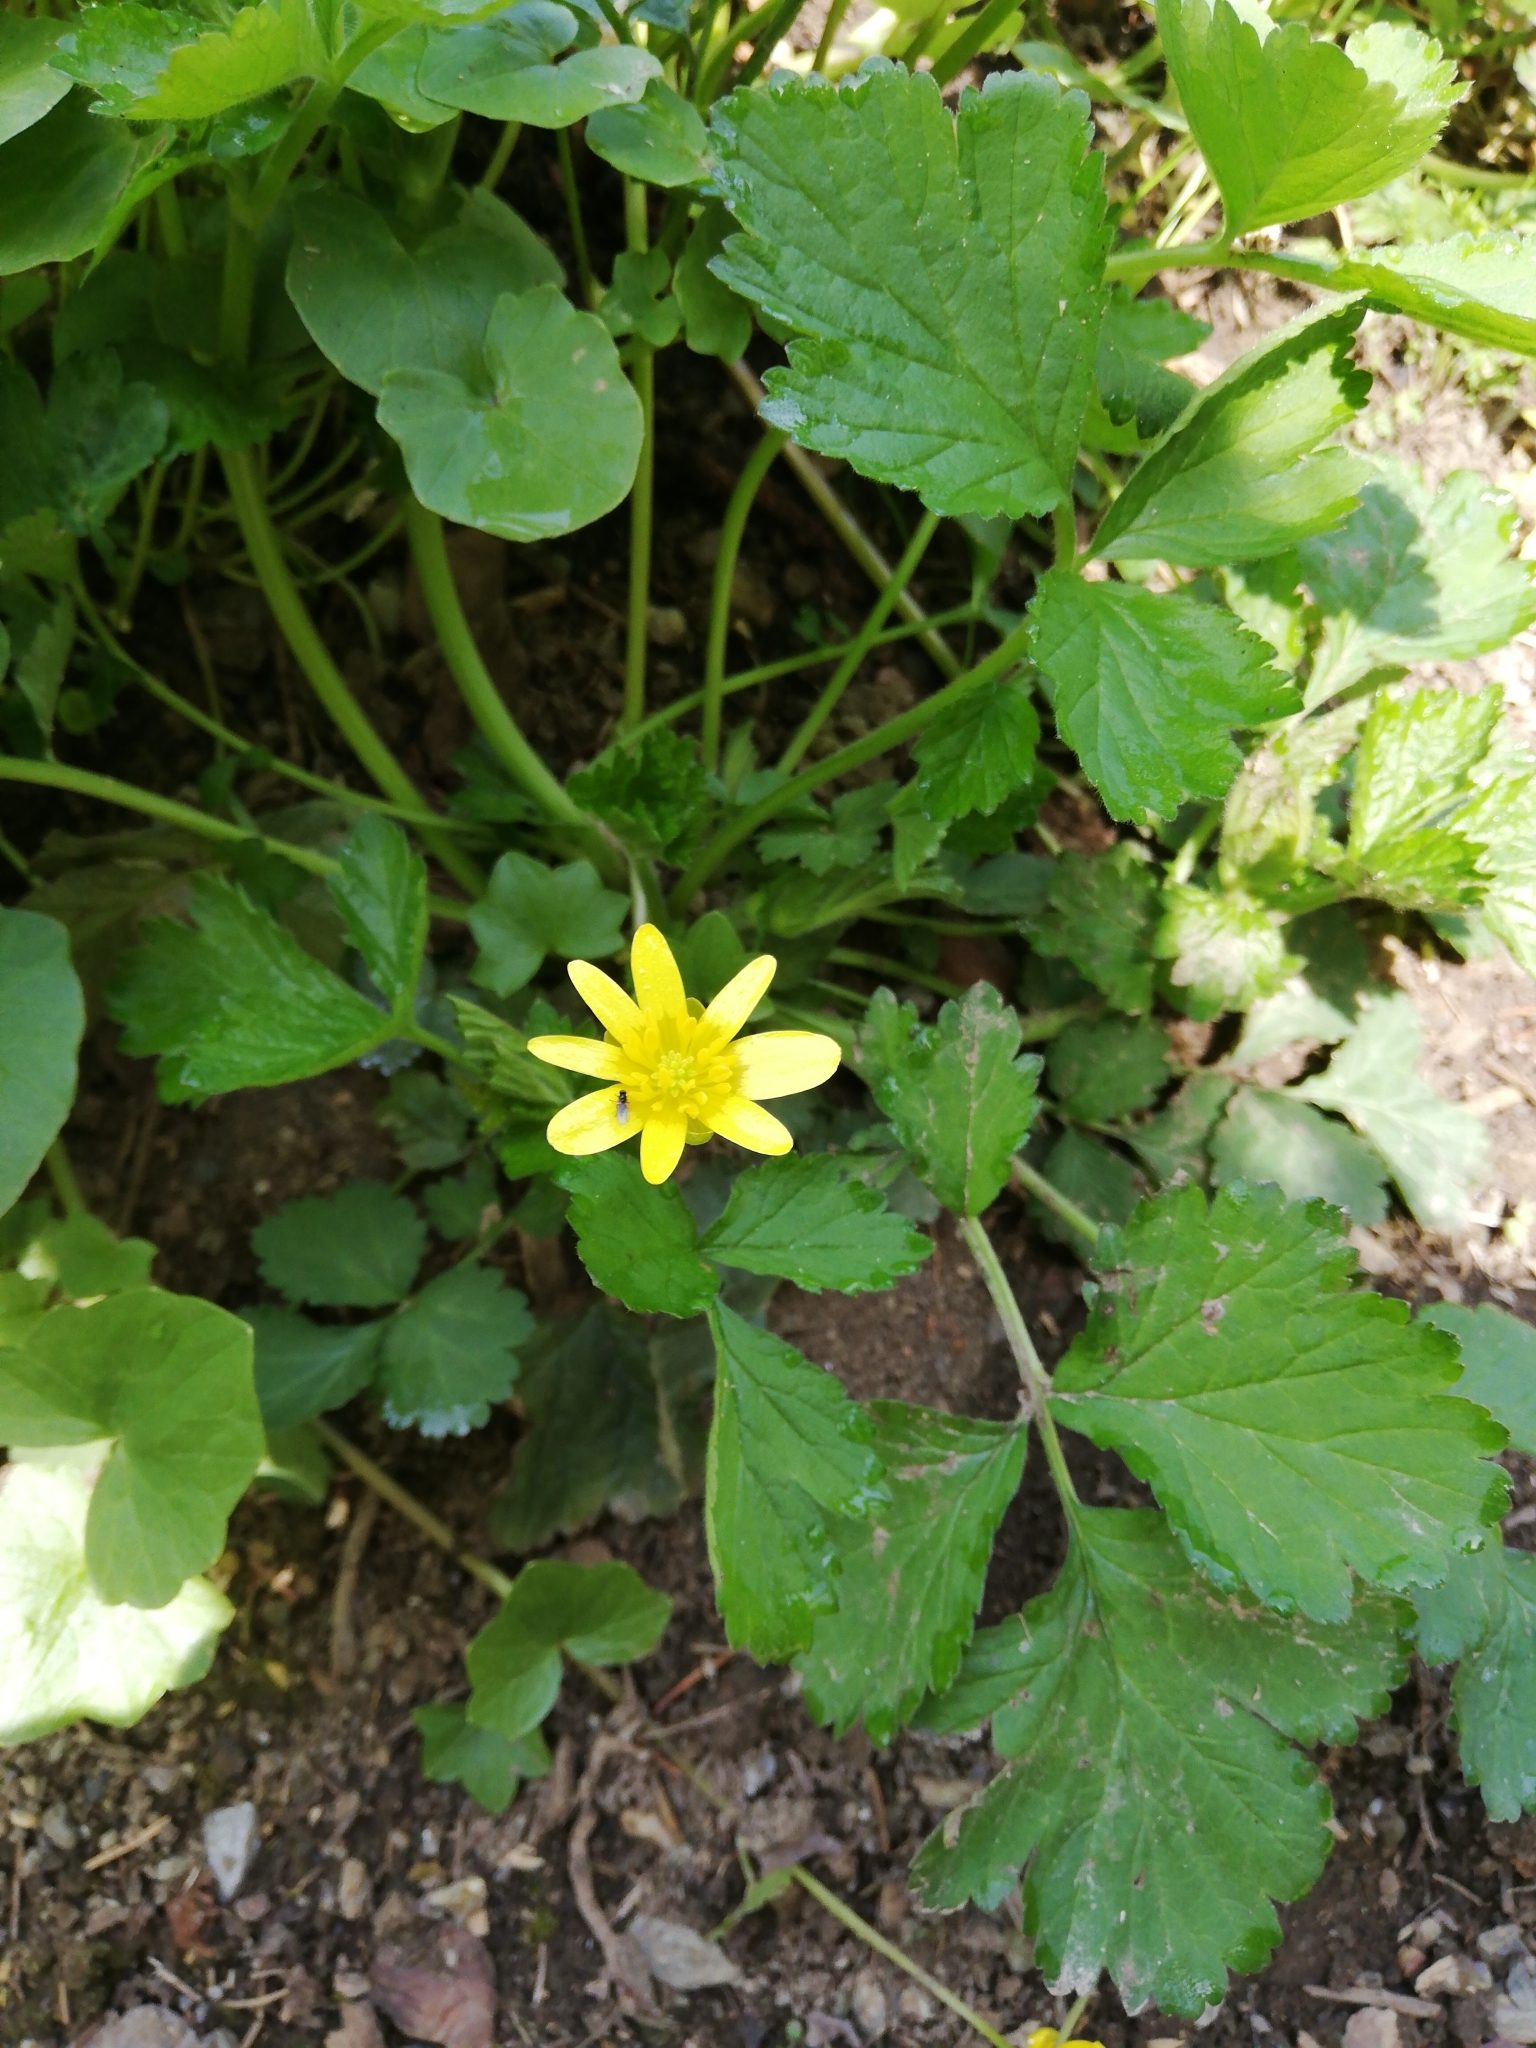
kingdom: Plantae
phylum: Tracheophyta
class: Magnoliopsida
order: Ranunculales
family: Ranunculaceae
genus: Ficaria
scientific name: Ficaria verna
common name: Lesser celandine
